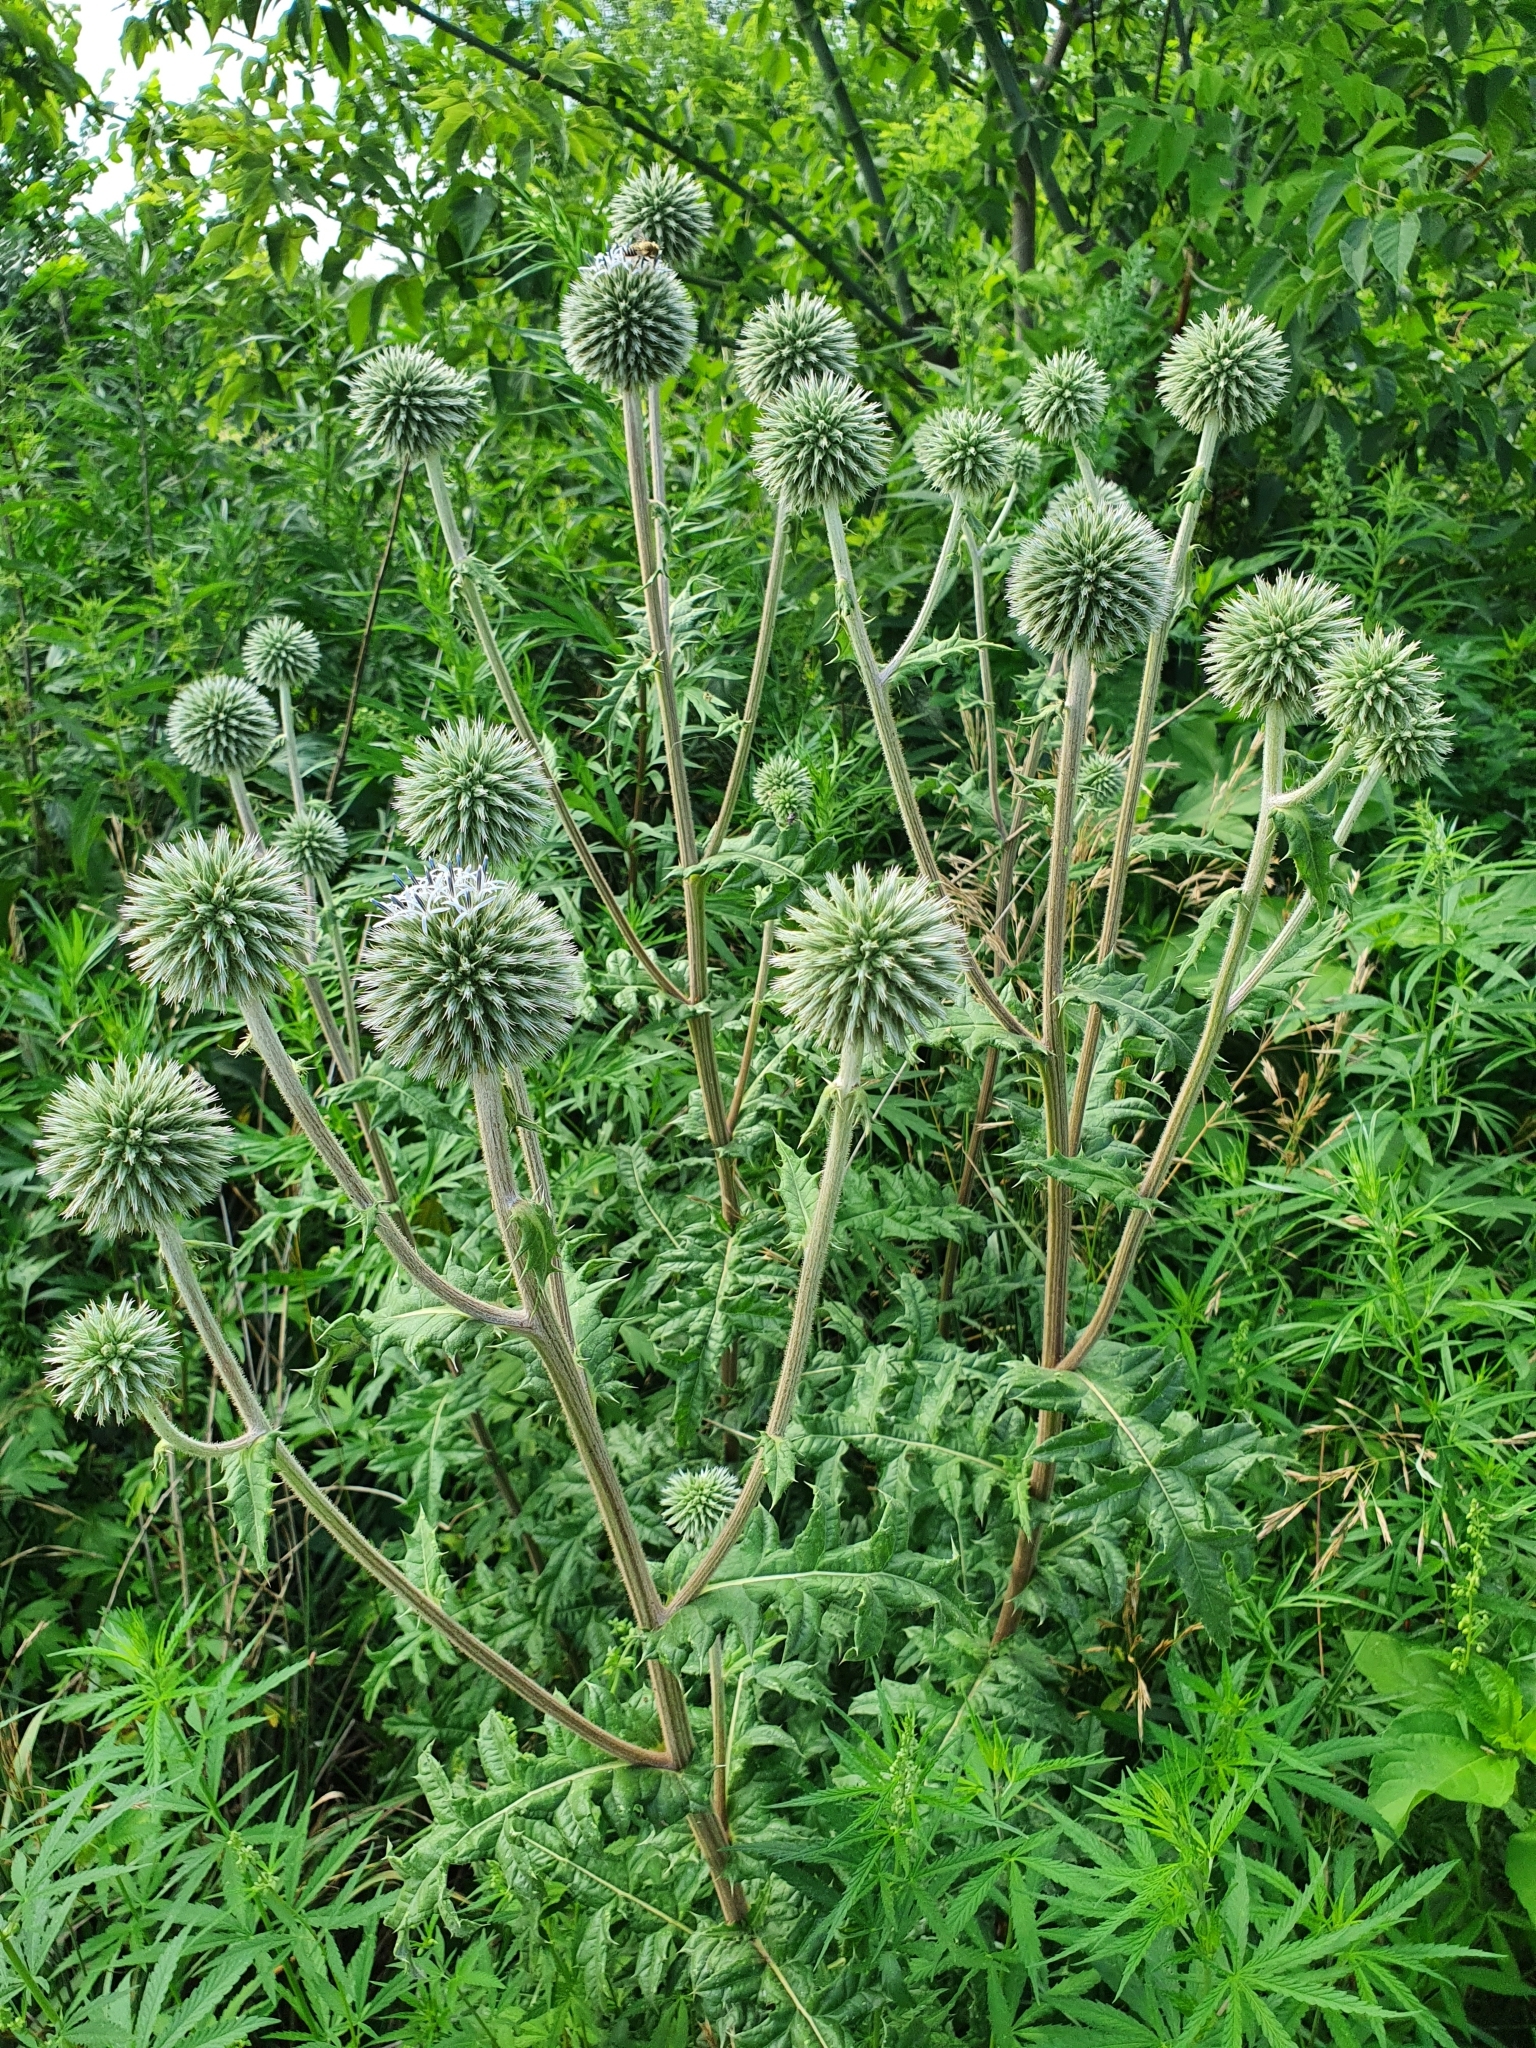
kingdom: Plantae
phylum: Tracheophyta
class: Magnoliopsida
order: Asterales
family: Asteraceae
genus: Echinops
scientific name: Echinops sphaerocephalus
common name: Glandular globe-thistle
